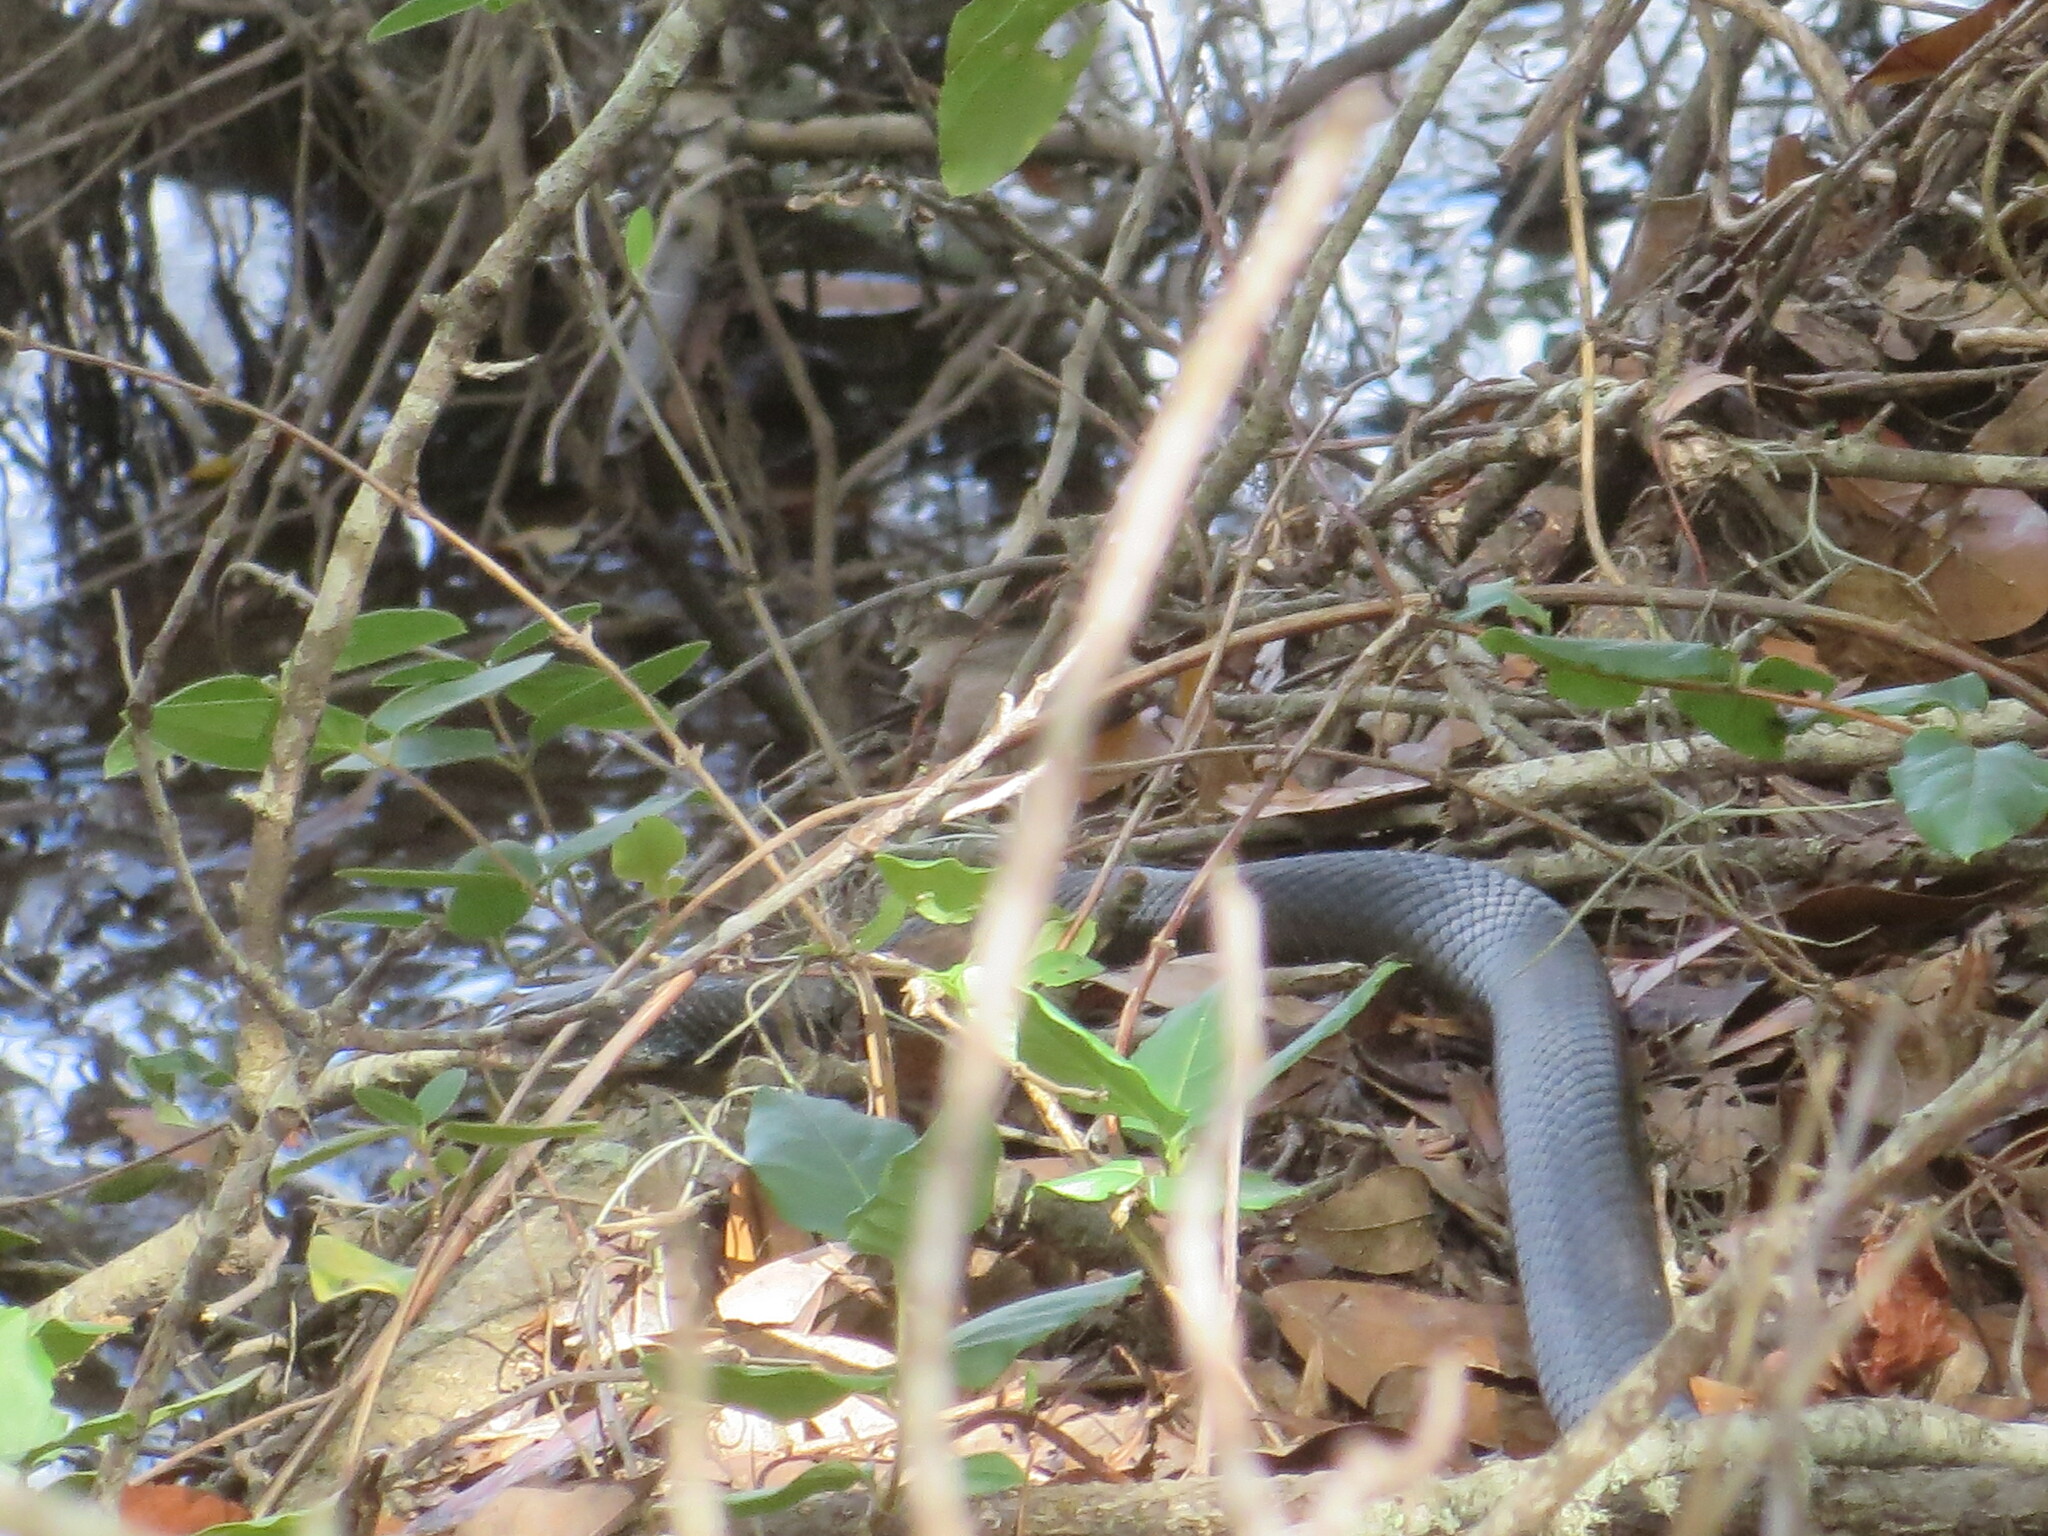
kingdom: Animalia
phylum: Chordata
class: Squamata
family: Colubridae
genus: Coluber
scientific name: Coluber constrictor
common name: Eastern racer
